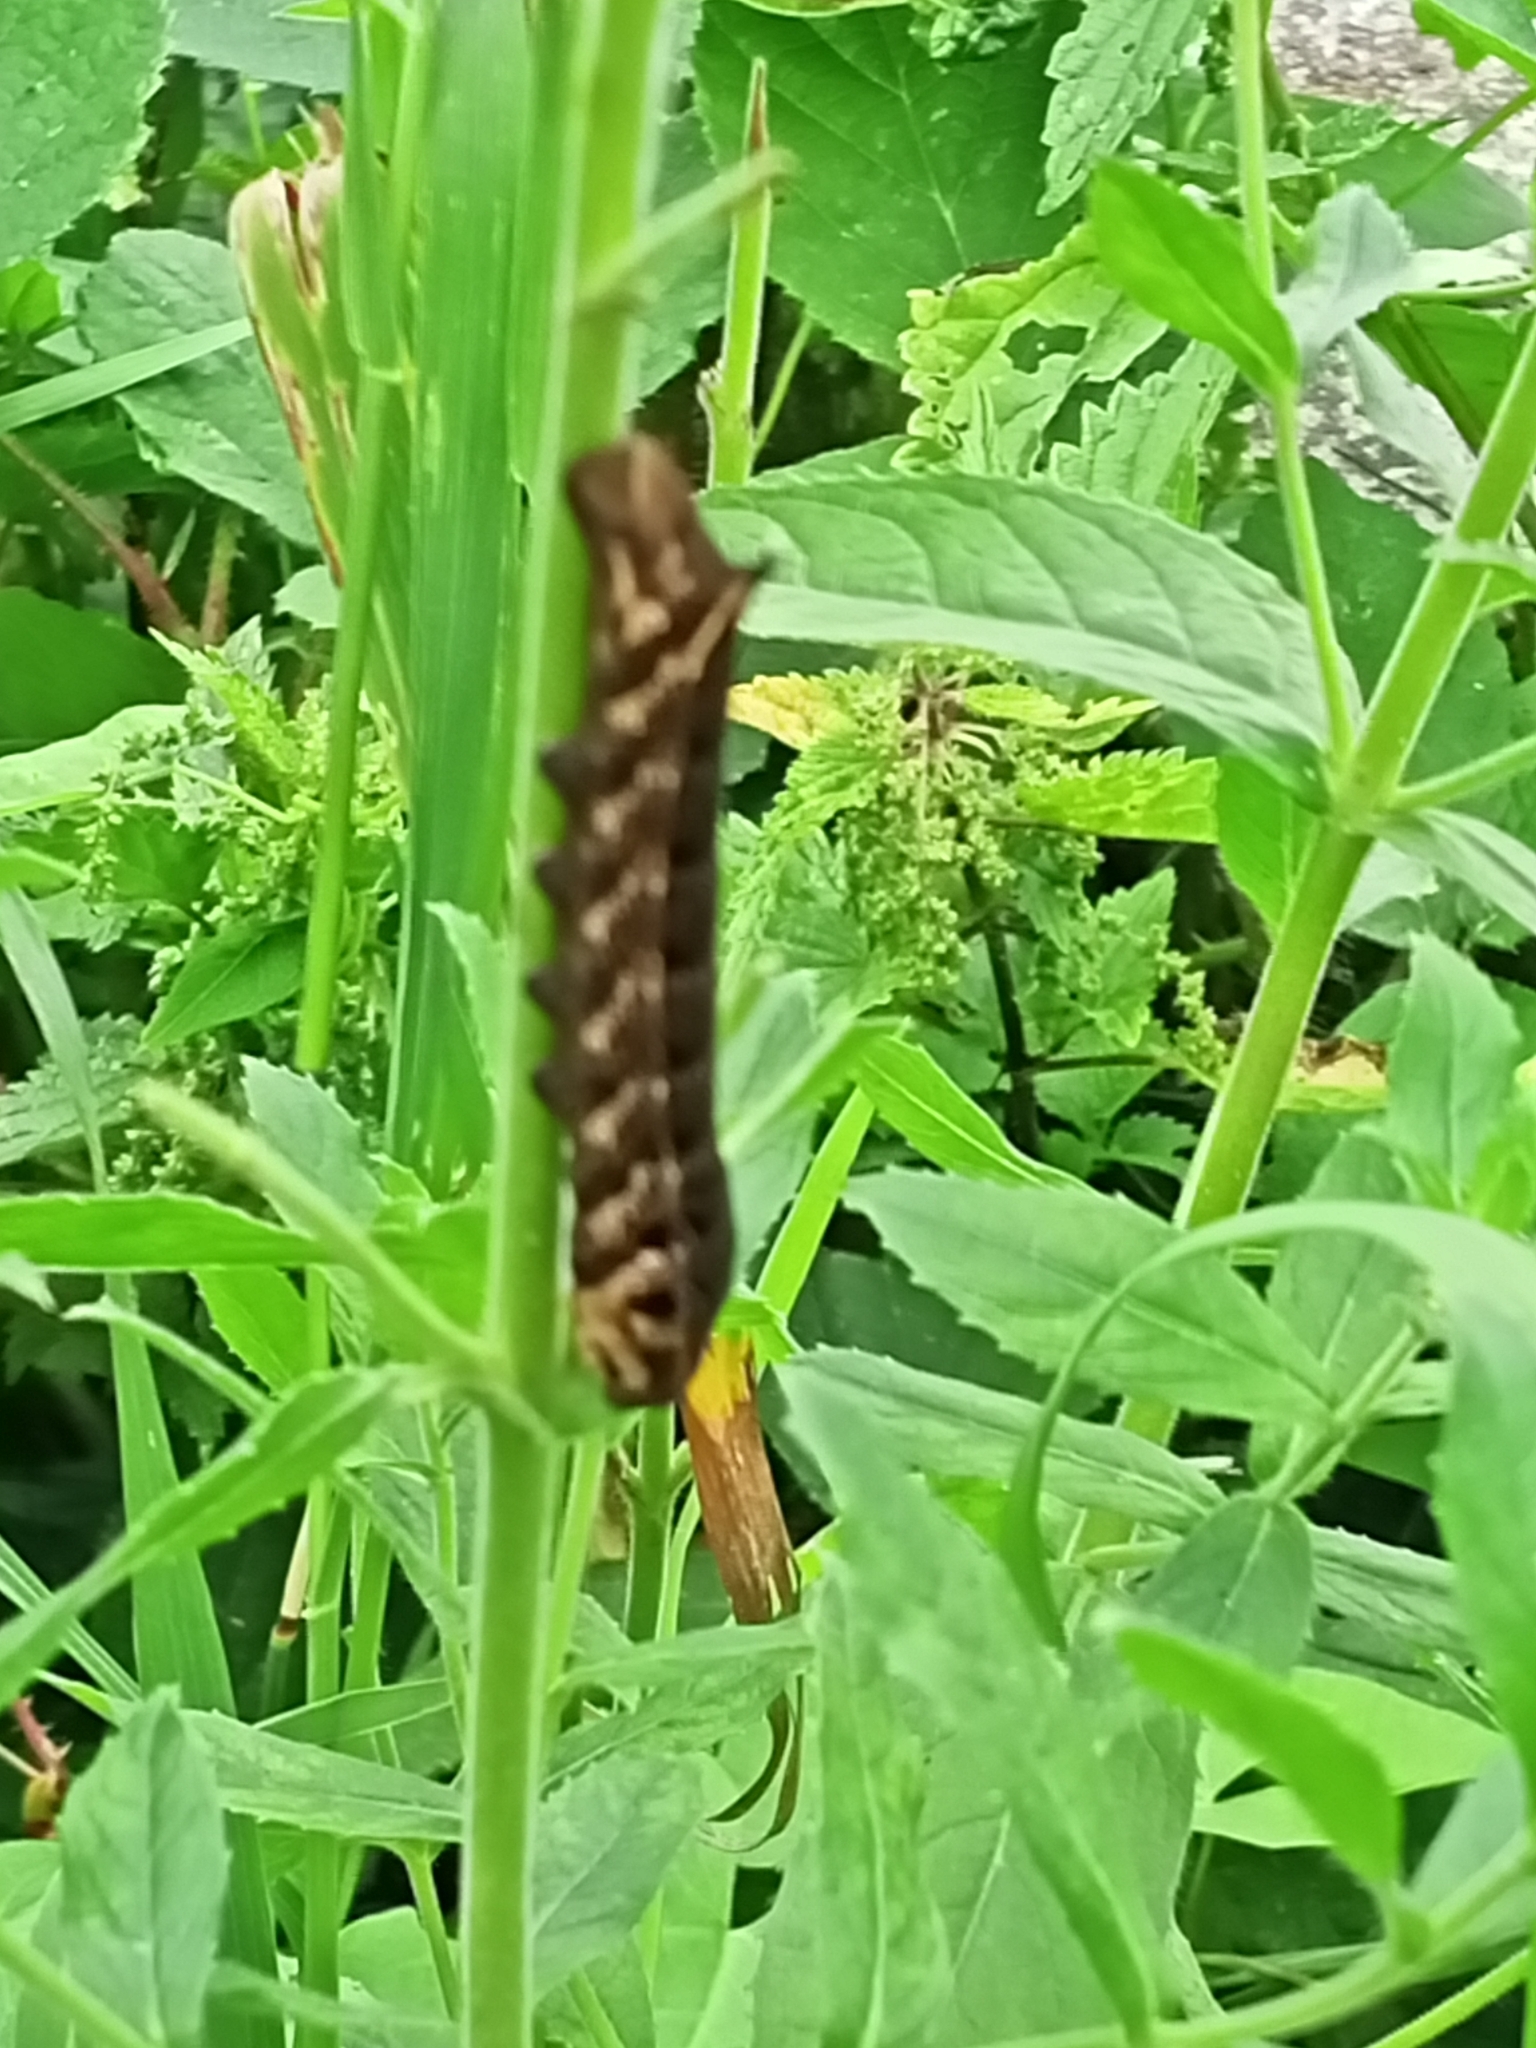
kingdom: Animalia
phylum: Arthropoda
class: Insecta
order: Lepidoptera
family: Sphingidae
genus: Deilephila
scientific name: Deilephila elpenor
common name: Elephant hawk-moth
